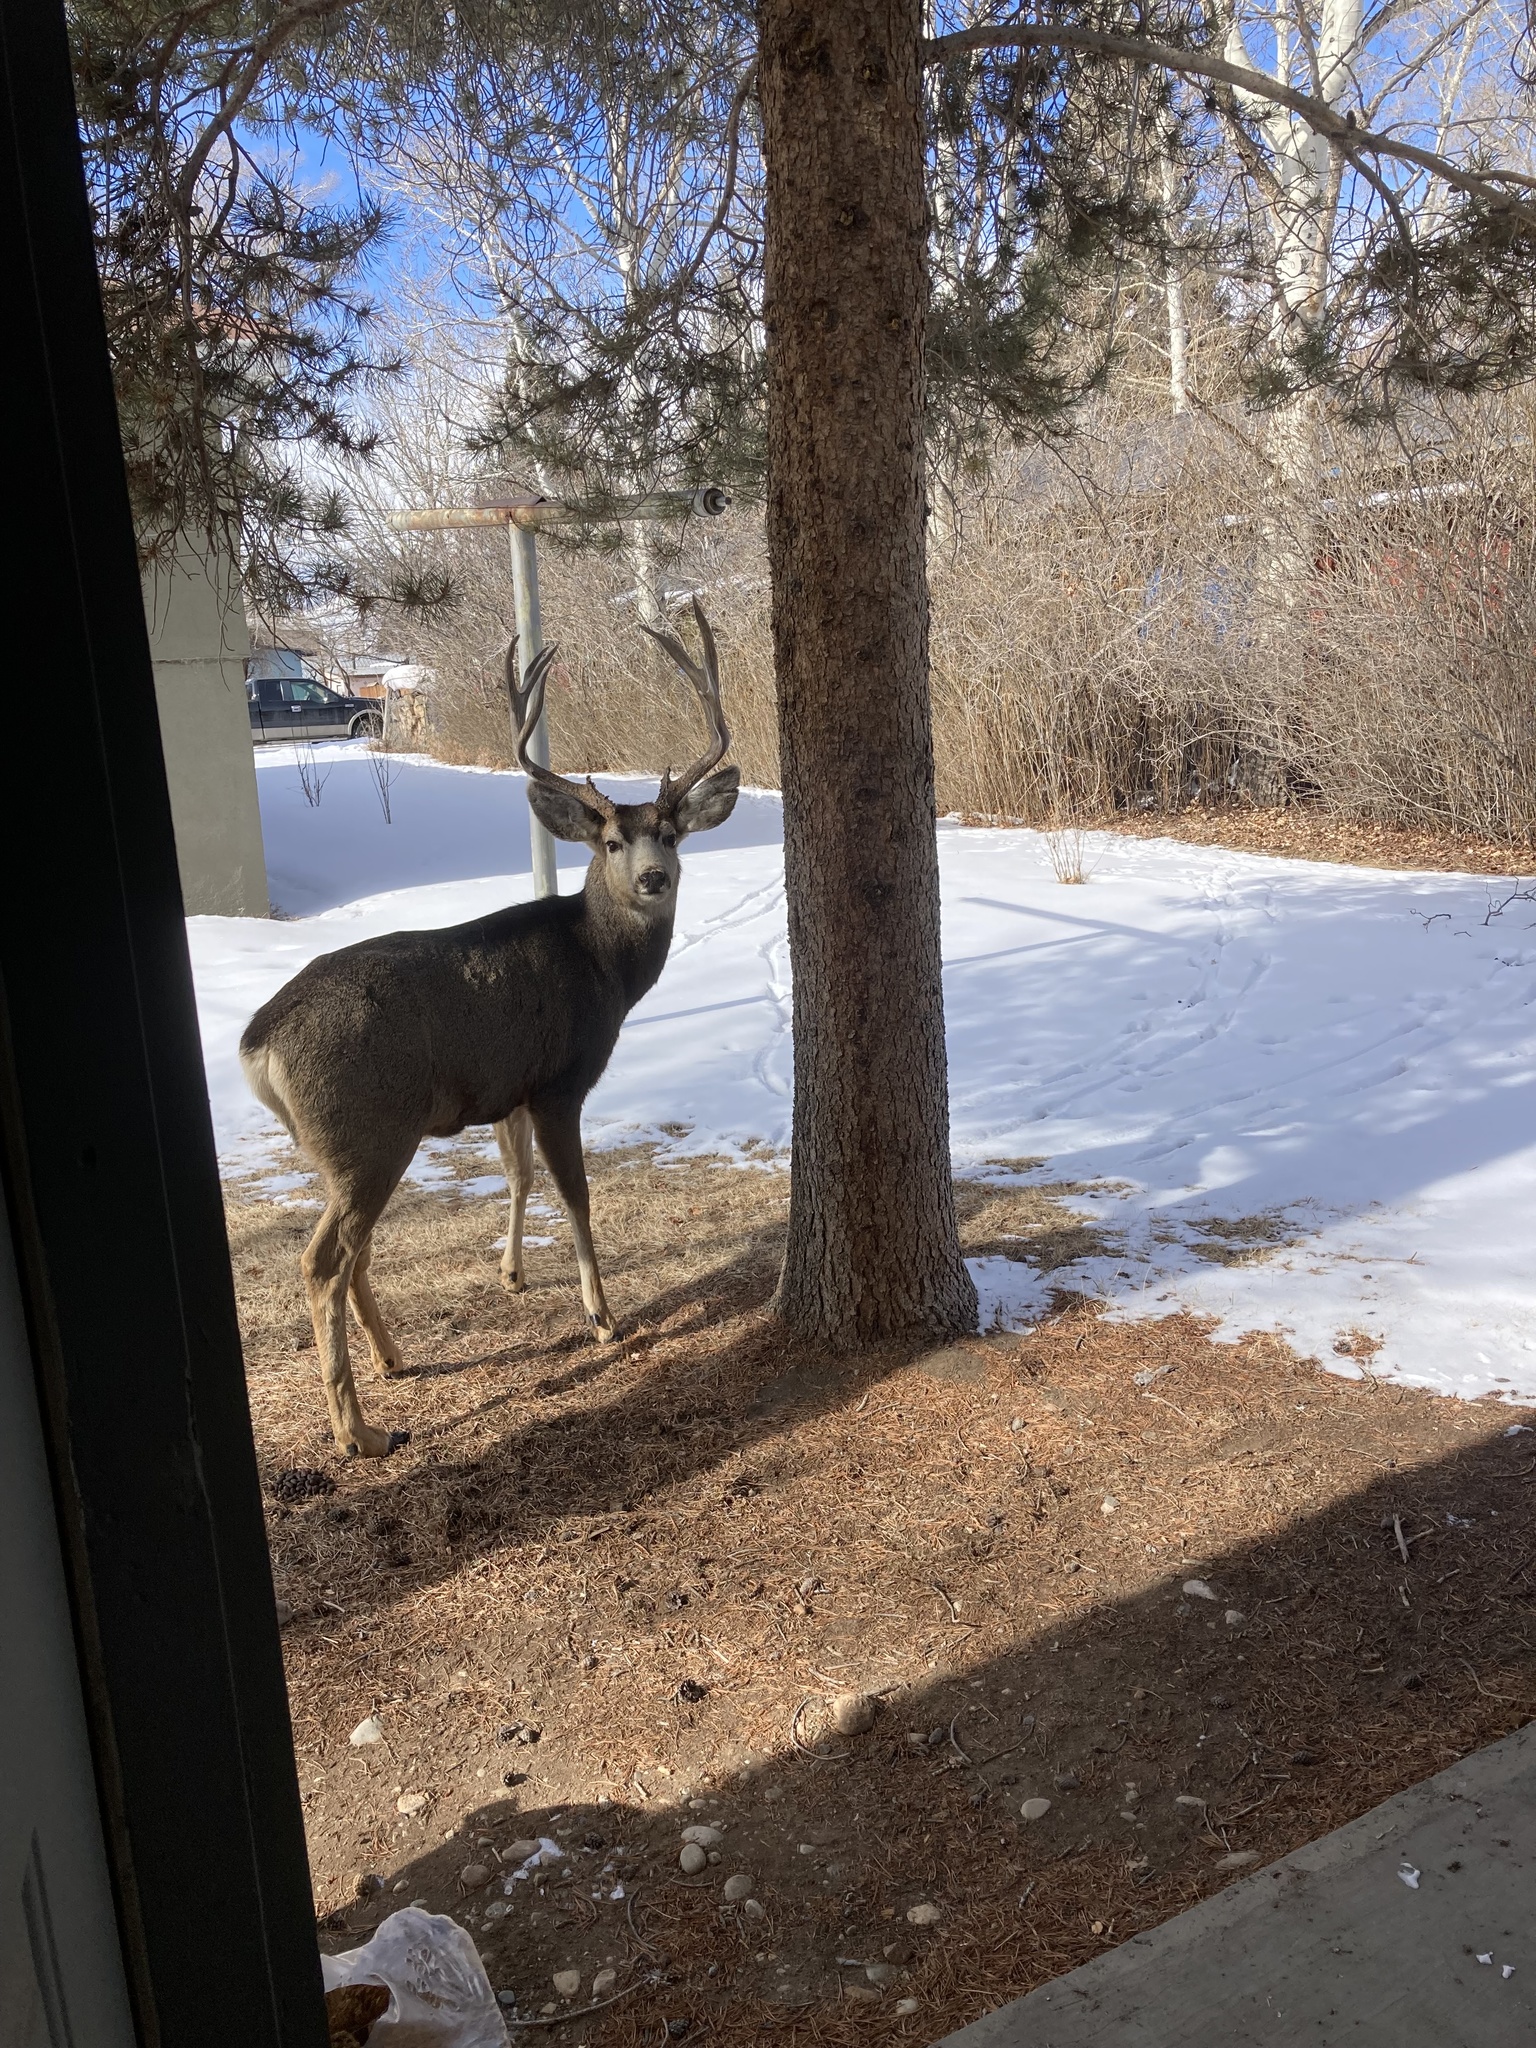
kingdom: Animalia
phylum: Chordata
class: Mammalia
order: Artiodactyla
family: Cervidae
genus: Odocoileus
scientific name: Odocoileus hemionus
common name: Mule deer
